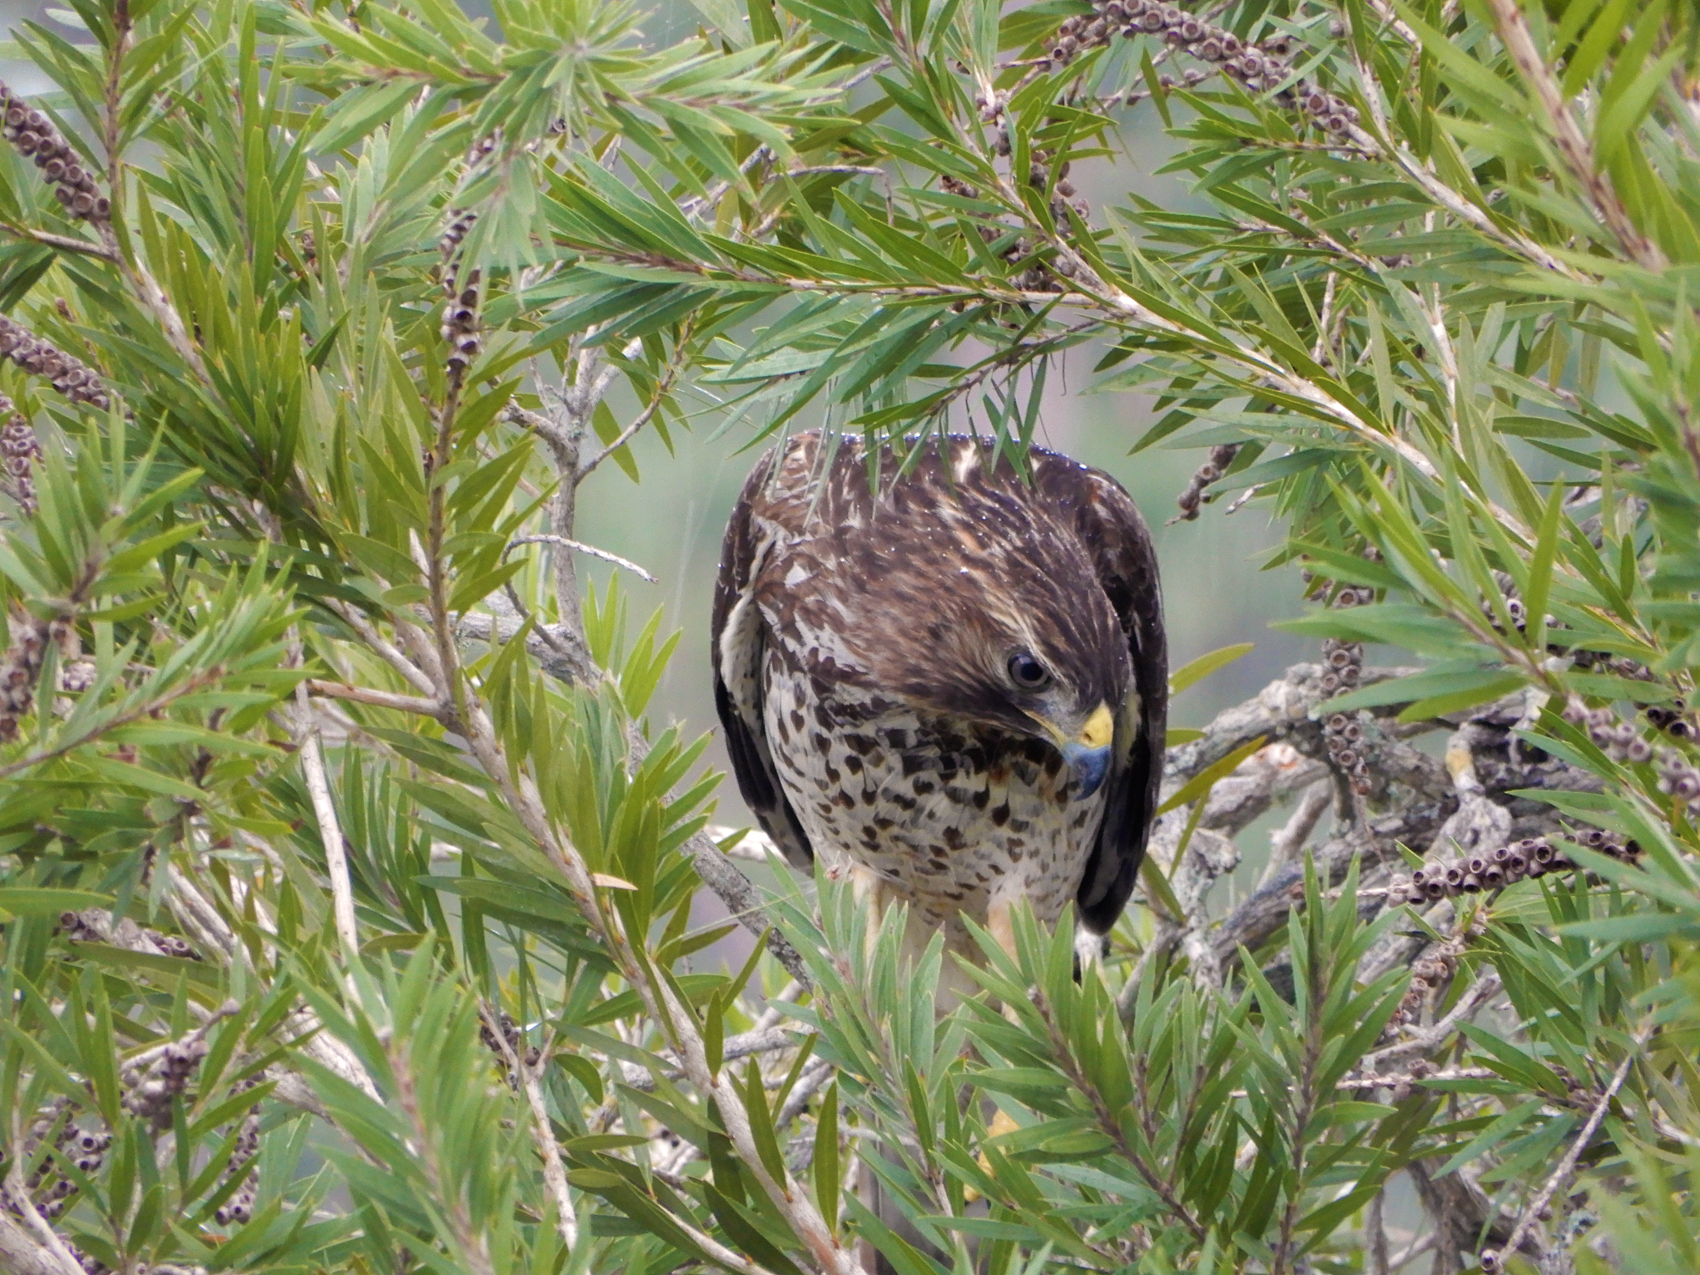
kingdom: Animalia
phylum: Chordata
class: Aves
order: Accipitriformes
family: Accipitridae
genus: Buteo
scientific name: Buteo lineatus
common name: Red-shouldered hawk
